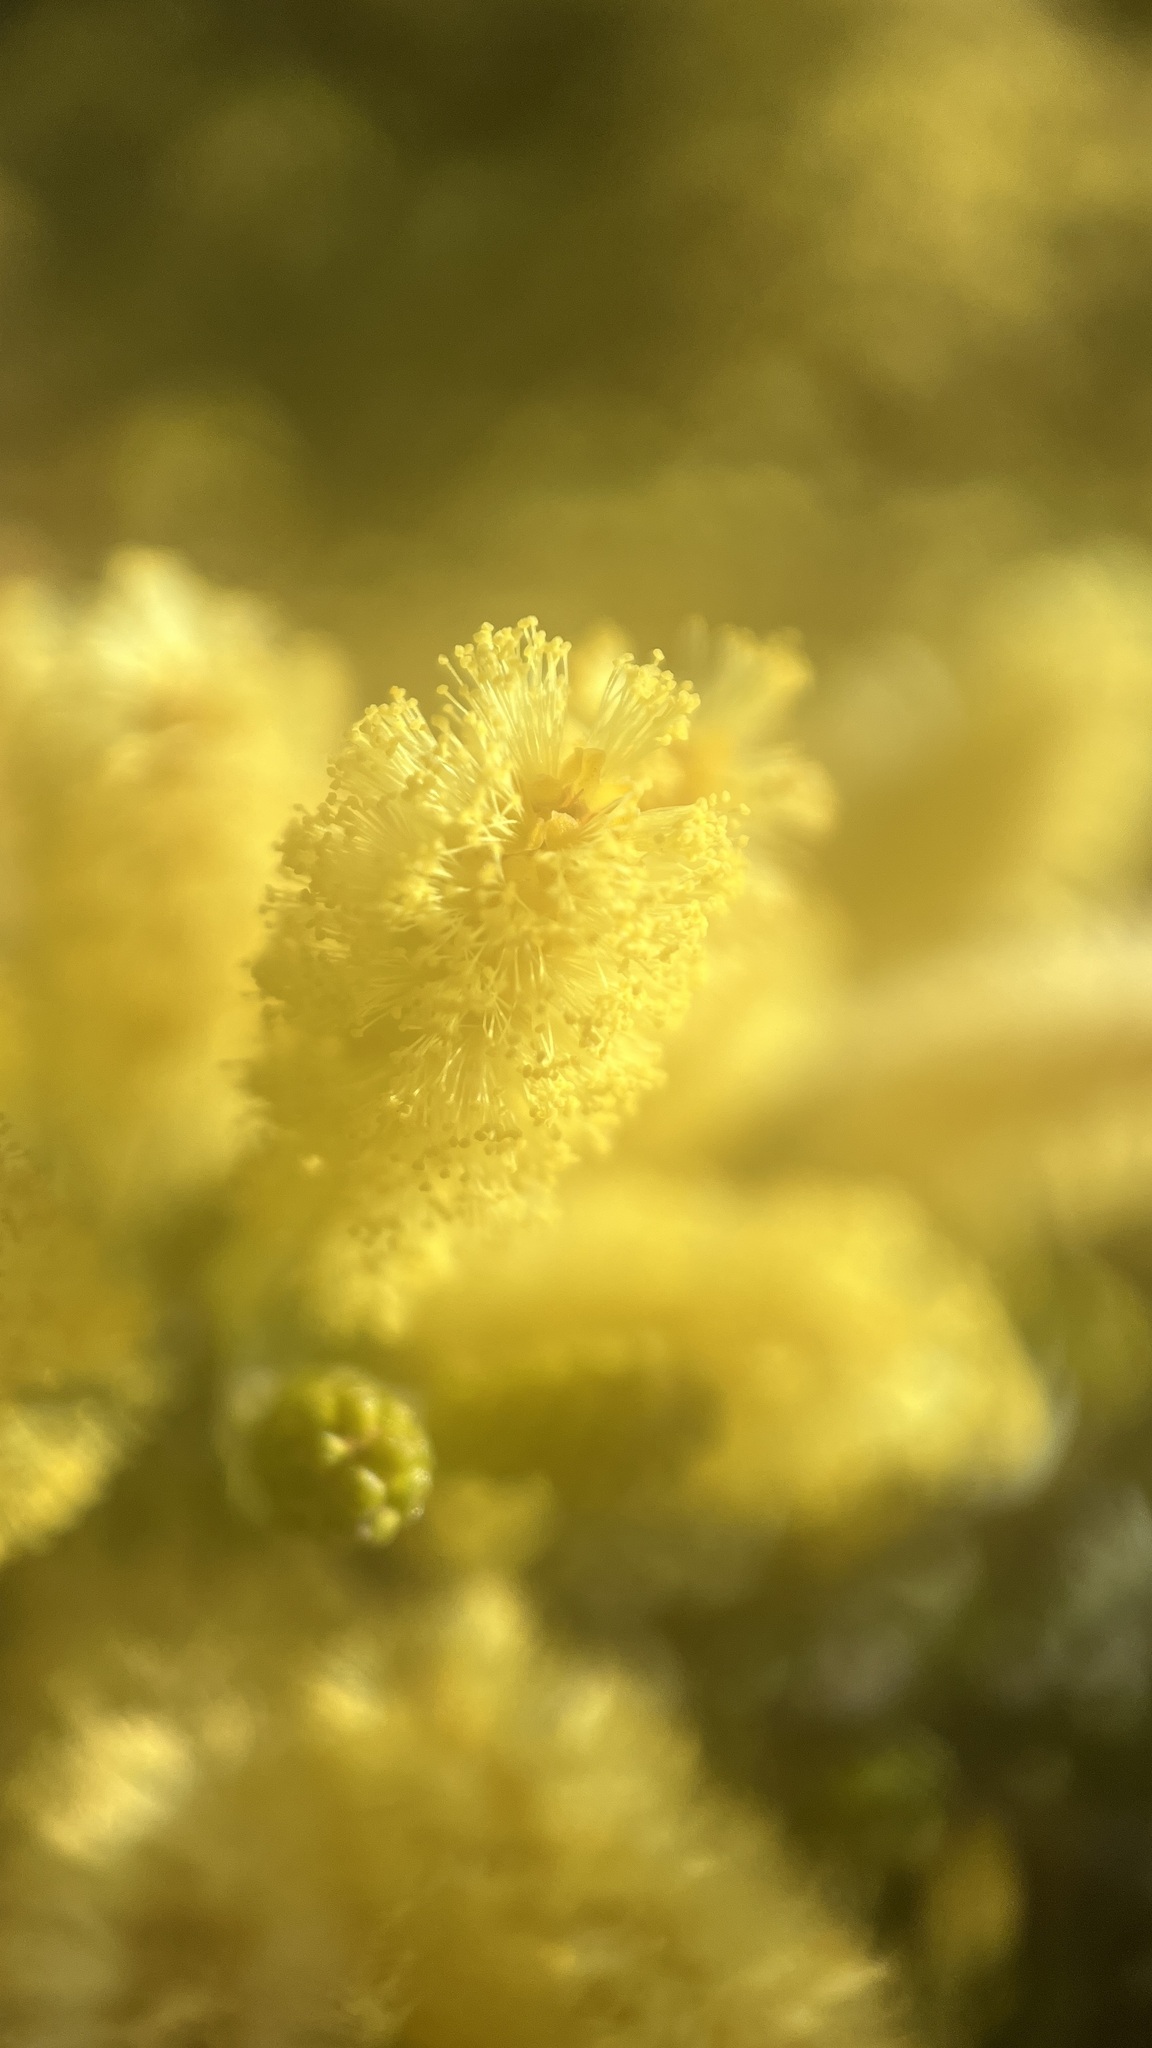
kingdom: Plantae
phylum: Tracheophyta
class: Magnoliopsida
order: Fabales
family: Fabaceae
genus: Acacia
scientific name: Acacia verticillata
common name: Prickly moses
